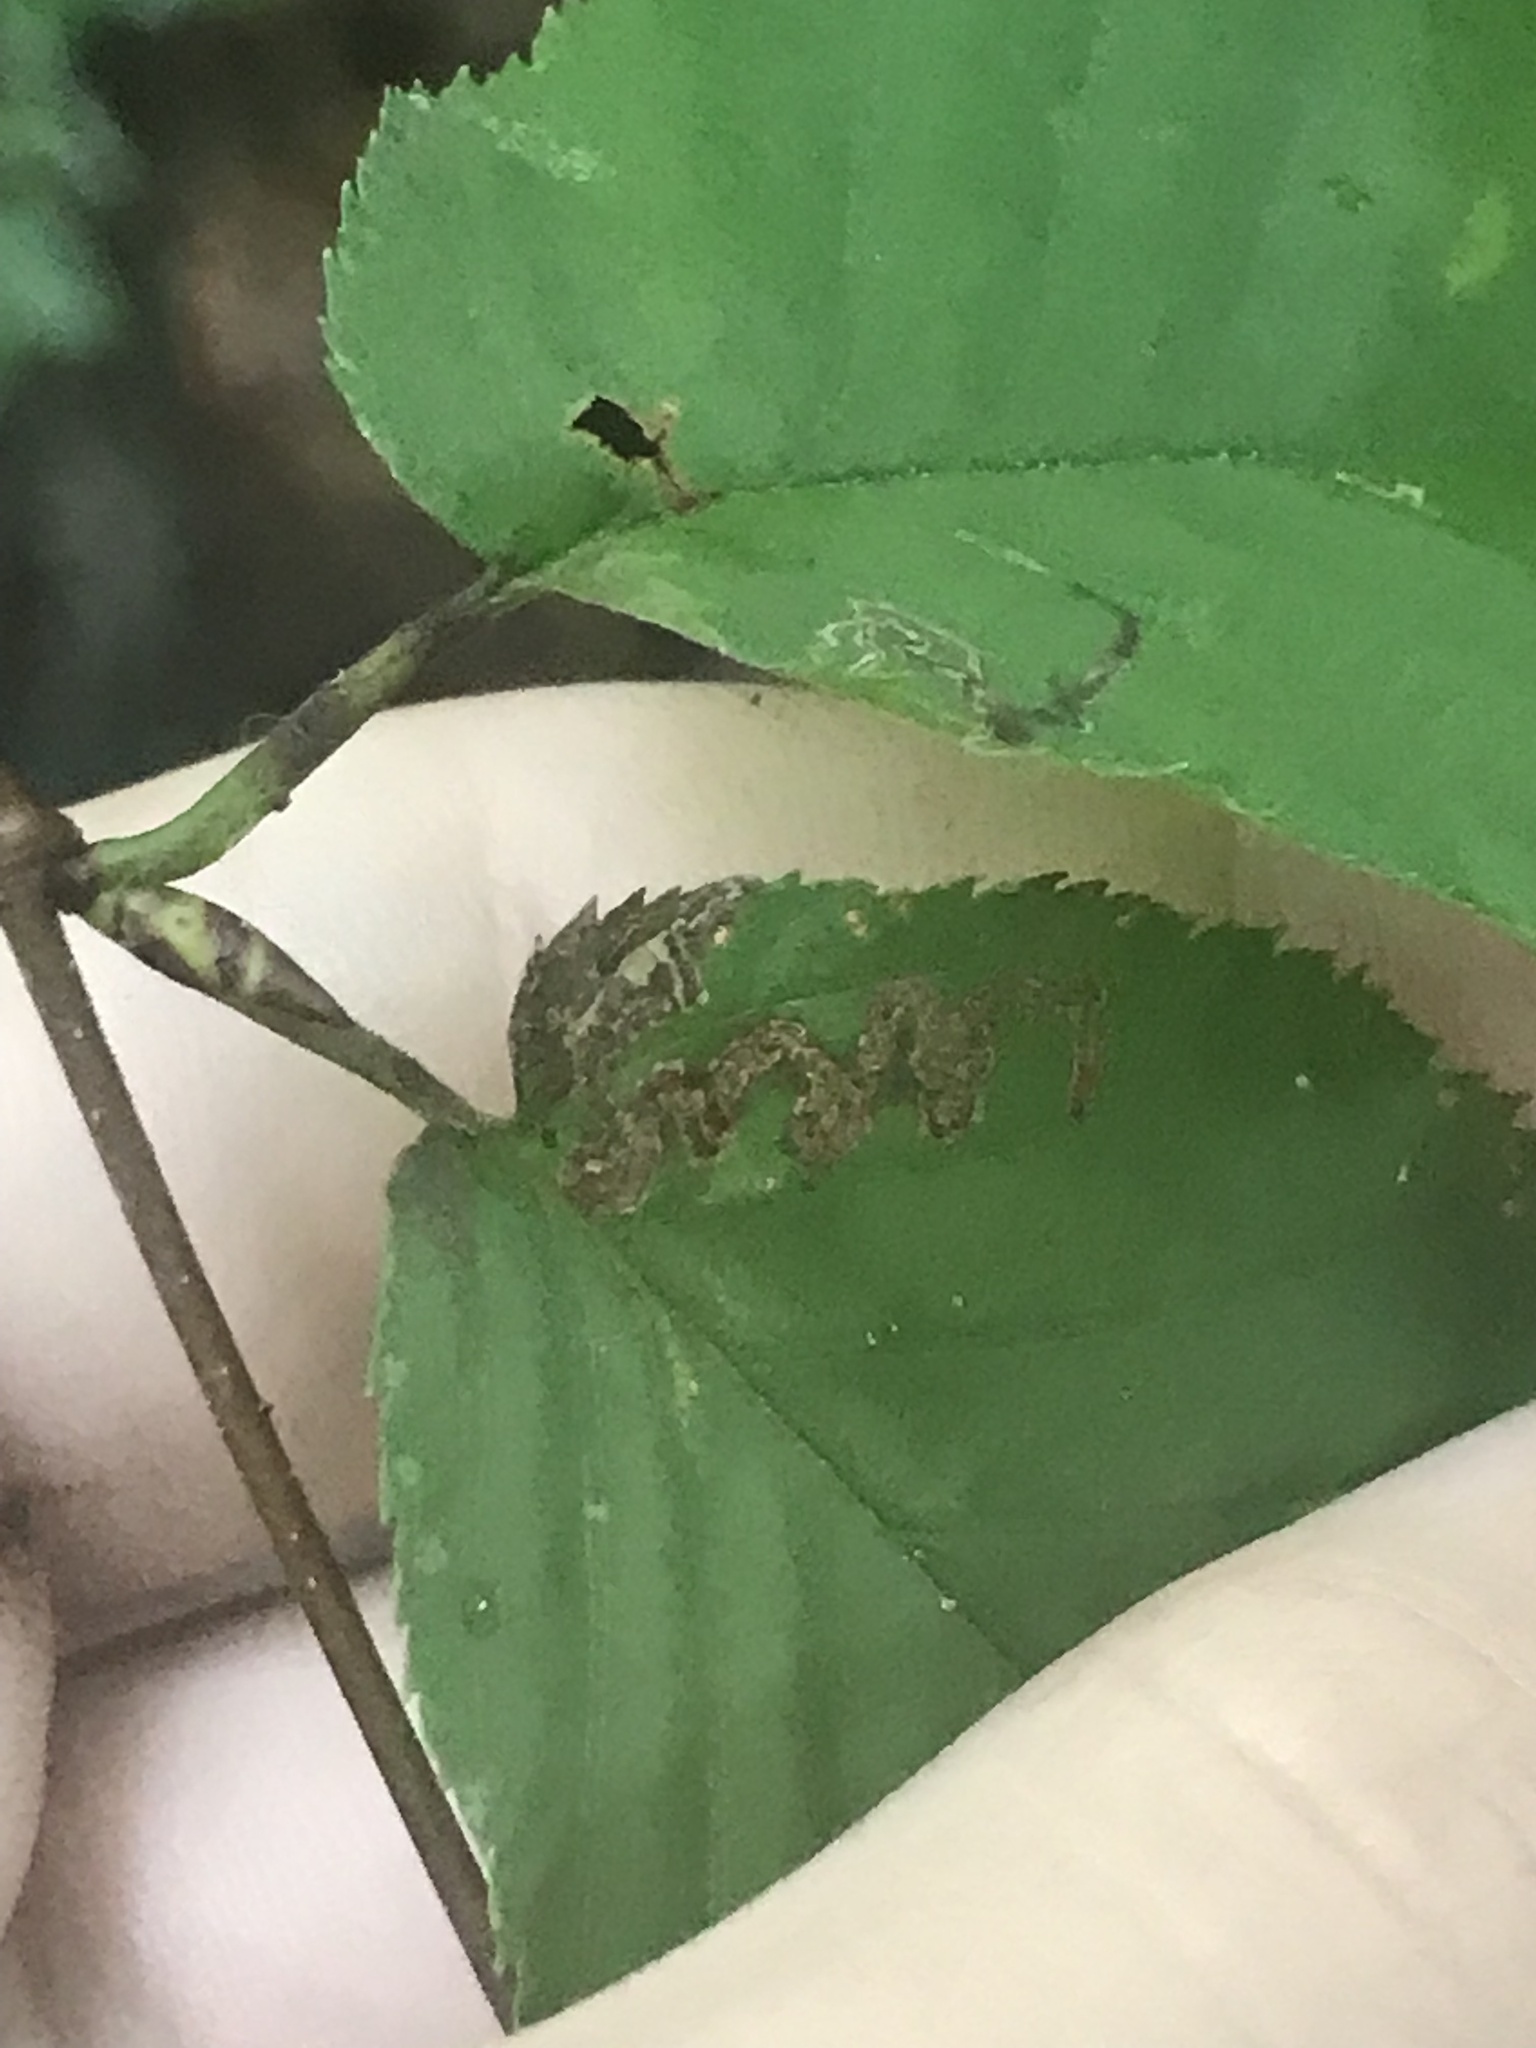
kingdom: Animalia
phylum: Arthropoda
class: Insecta
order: Lepidoptera
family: Nepticulidae
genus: Stigmella
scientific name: Stigmella
